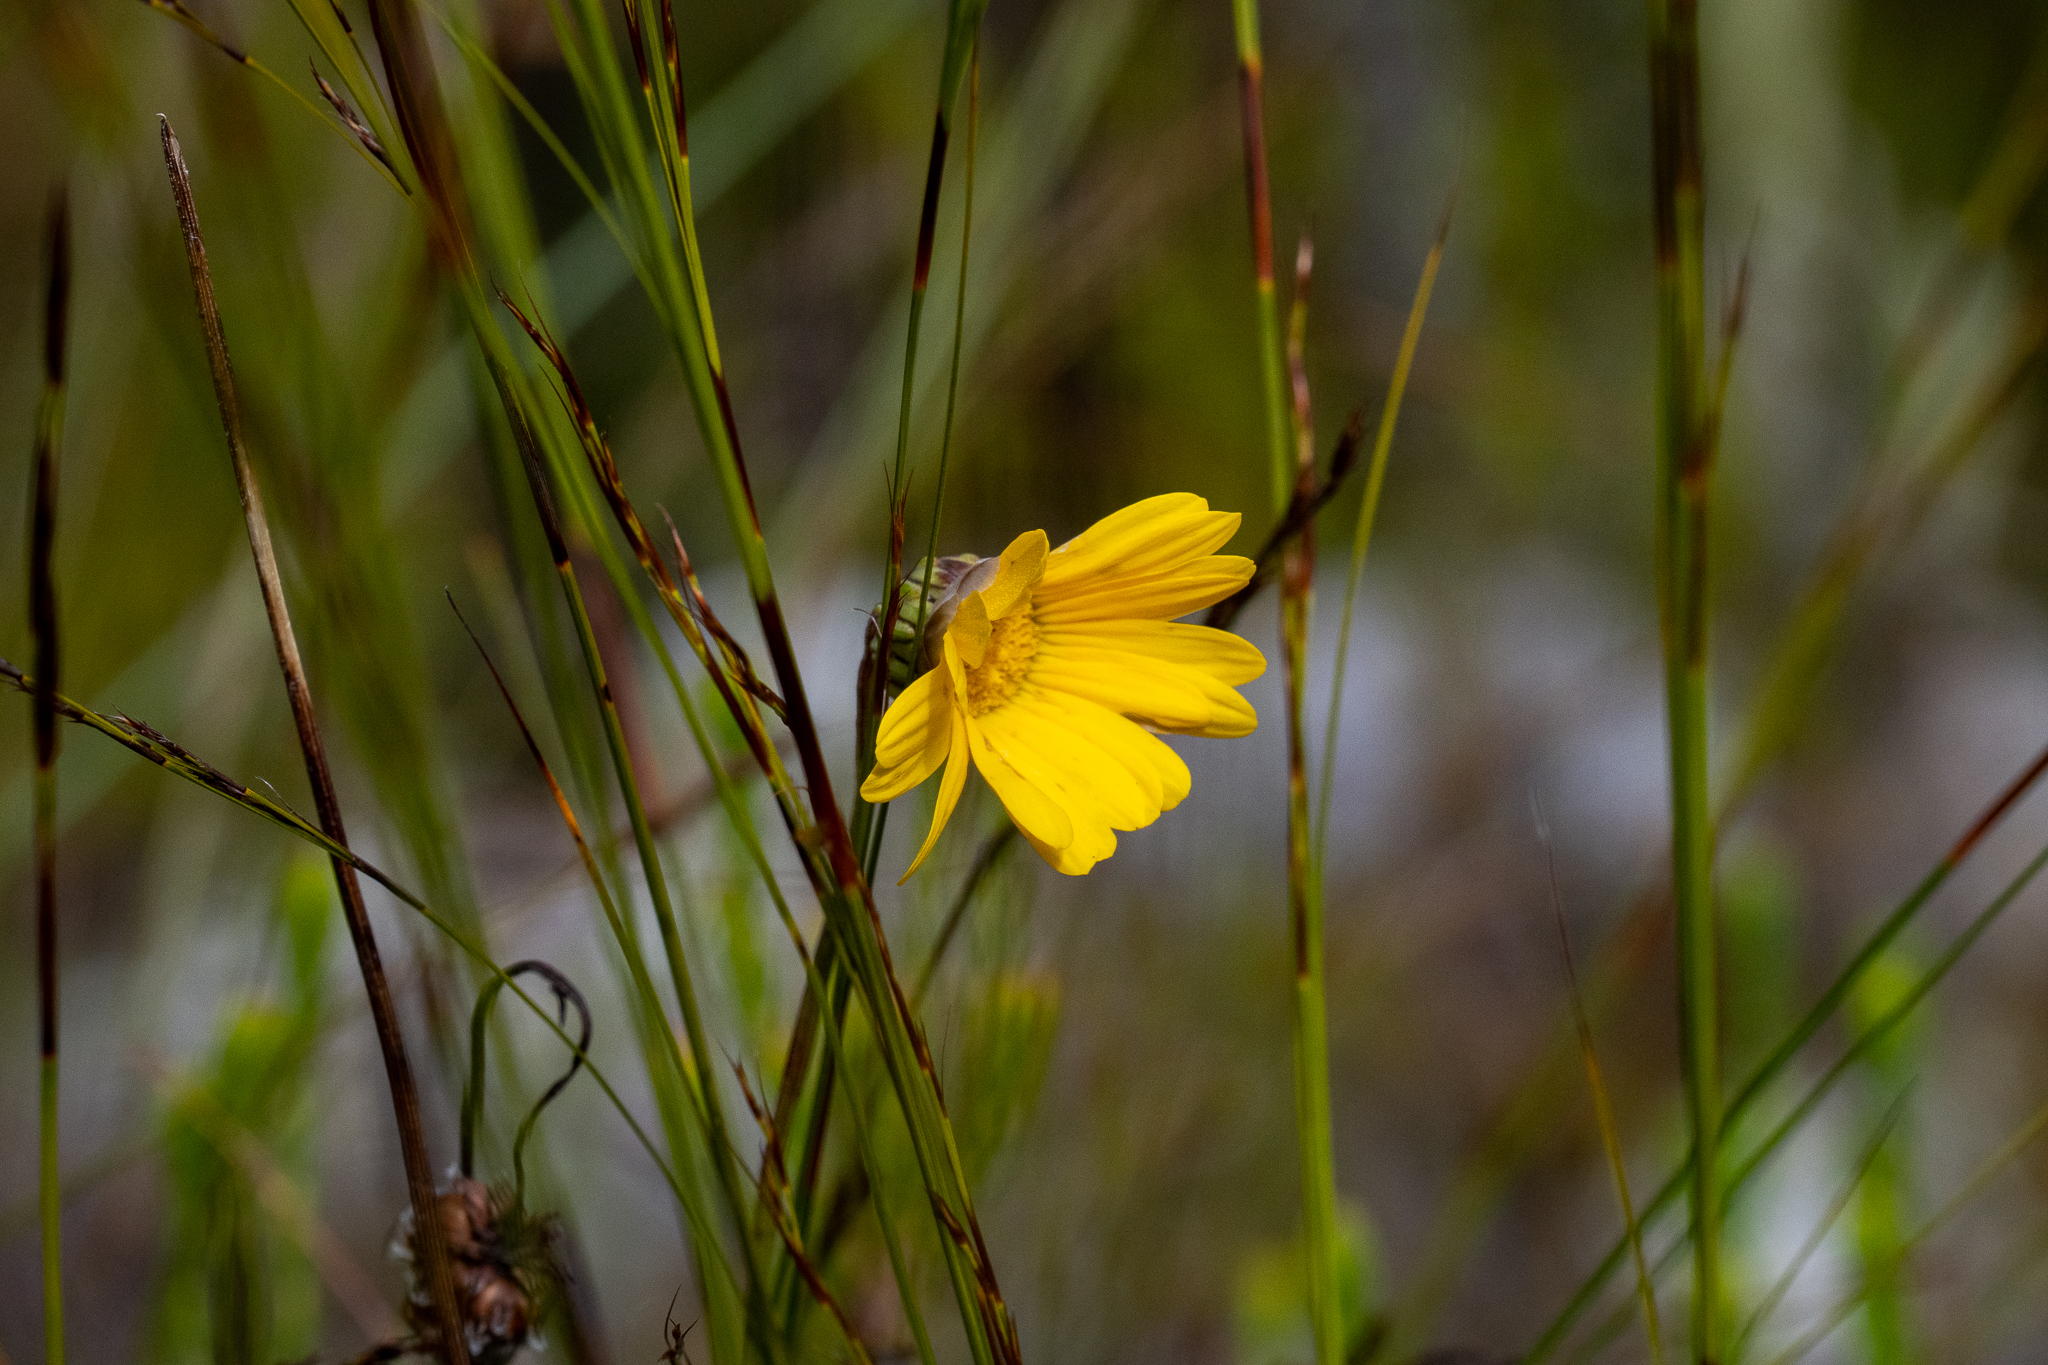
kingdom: Plantae
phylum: Tracheophyta
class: Magnoliopsida
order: Asterales
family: Asteraceae
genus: Ursinia
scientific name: Ursinia paleacea
